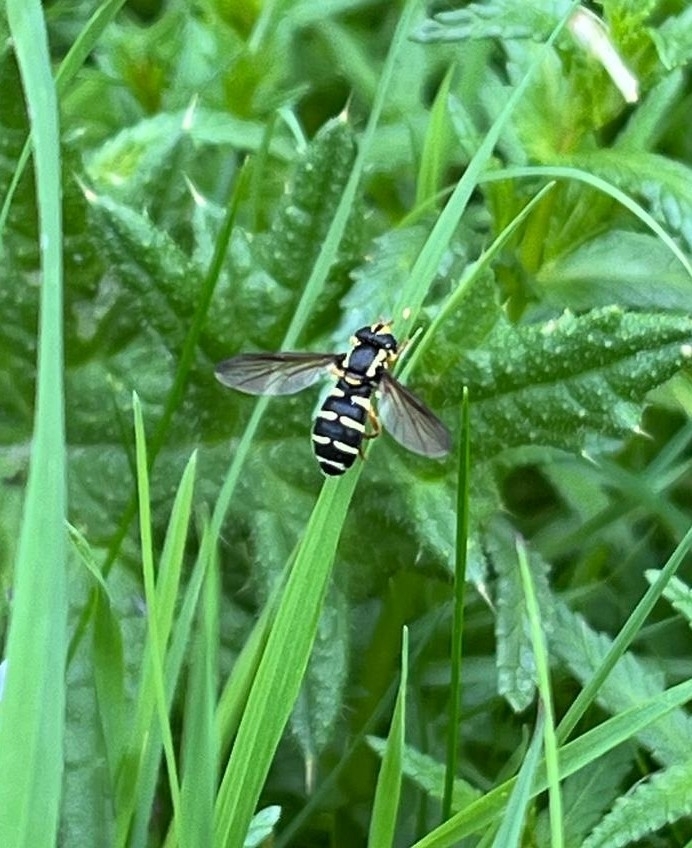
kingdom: Animalia
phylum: Arthropoda
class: Insecta
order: Diptera
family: Syrphidae
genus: Philhelius
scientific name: Philhelius citrofasciata
